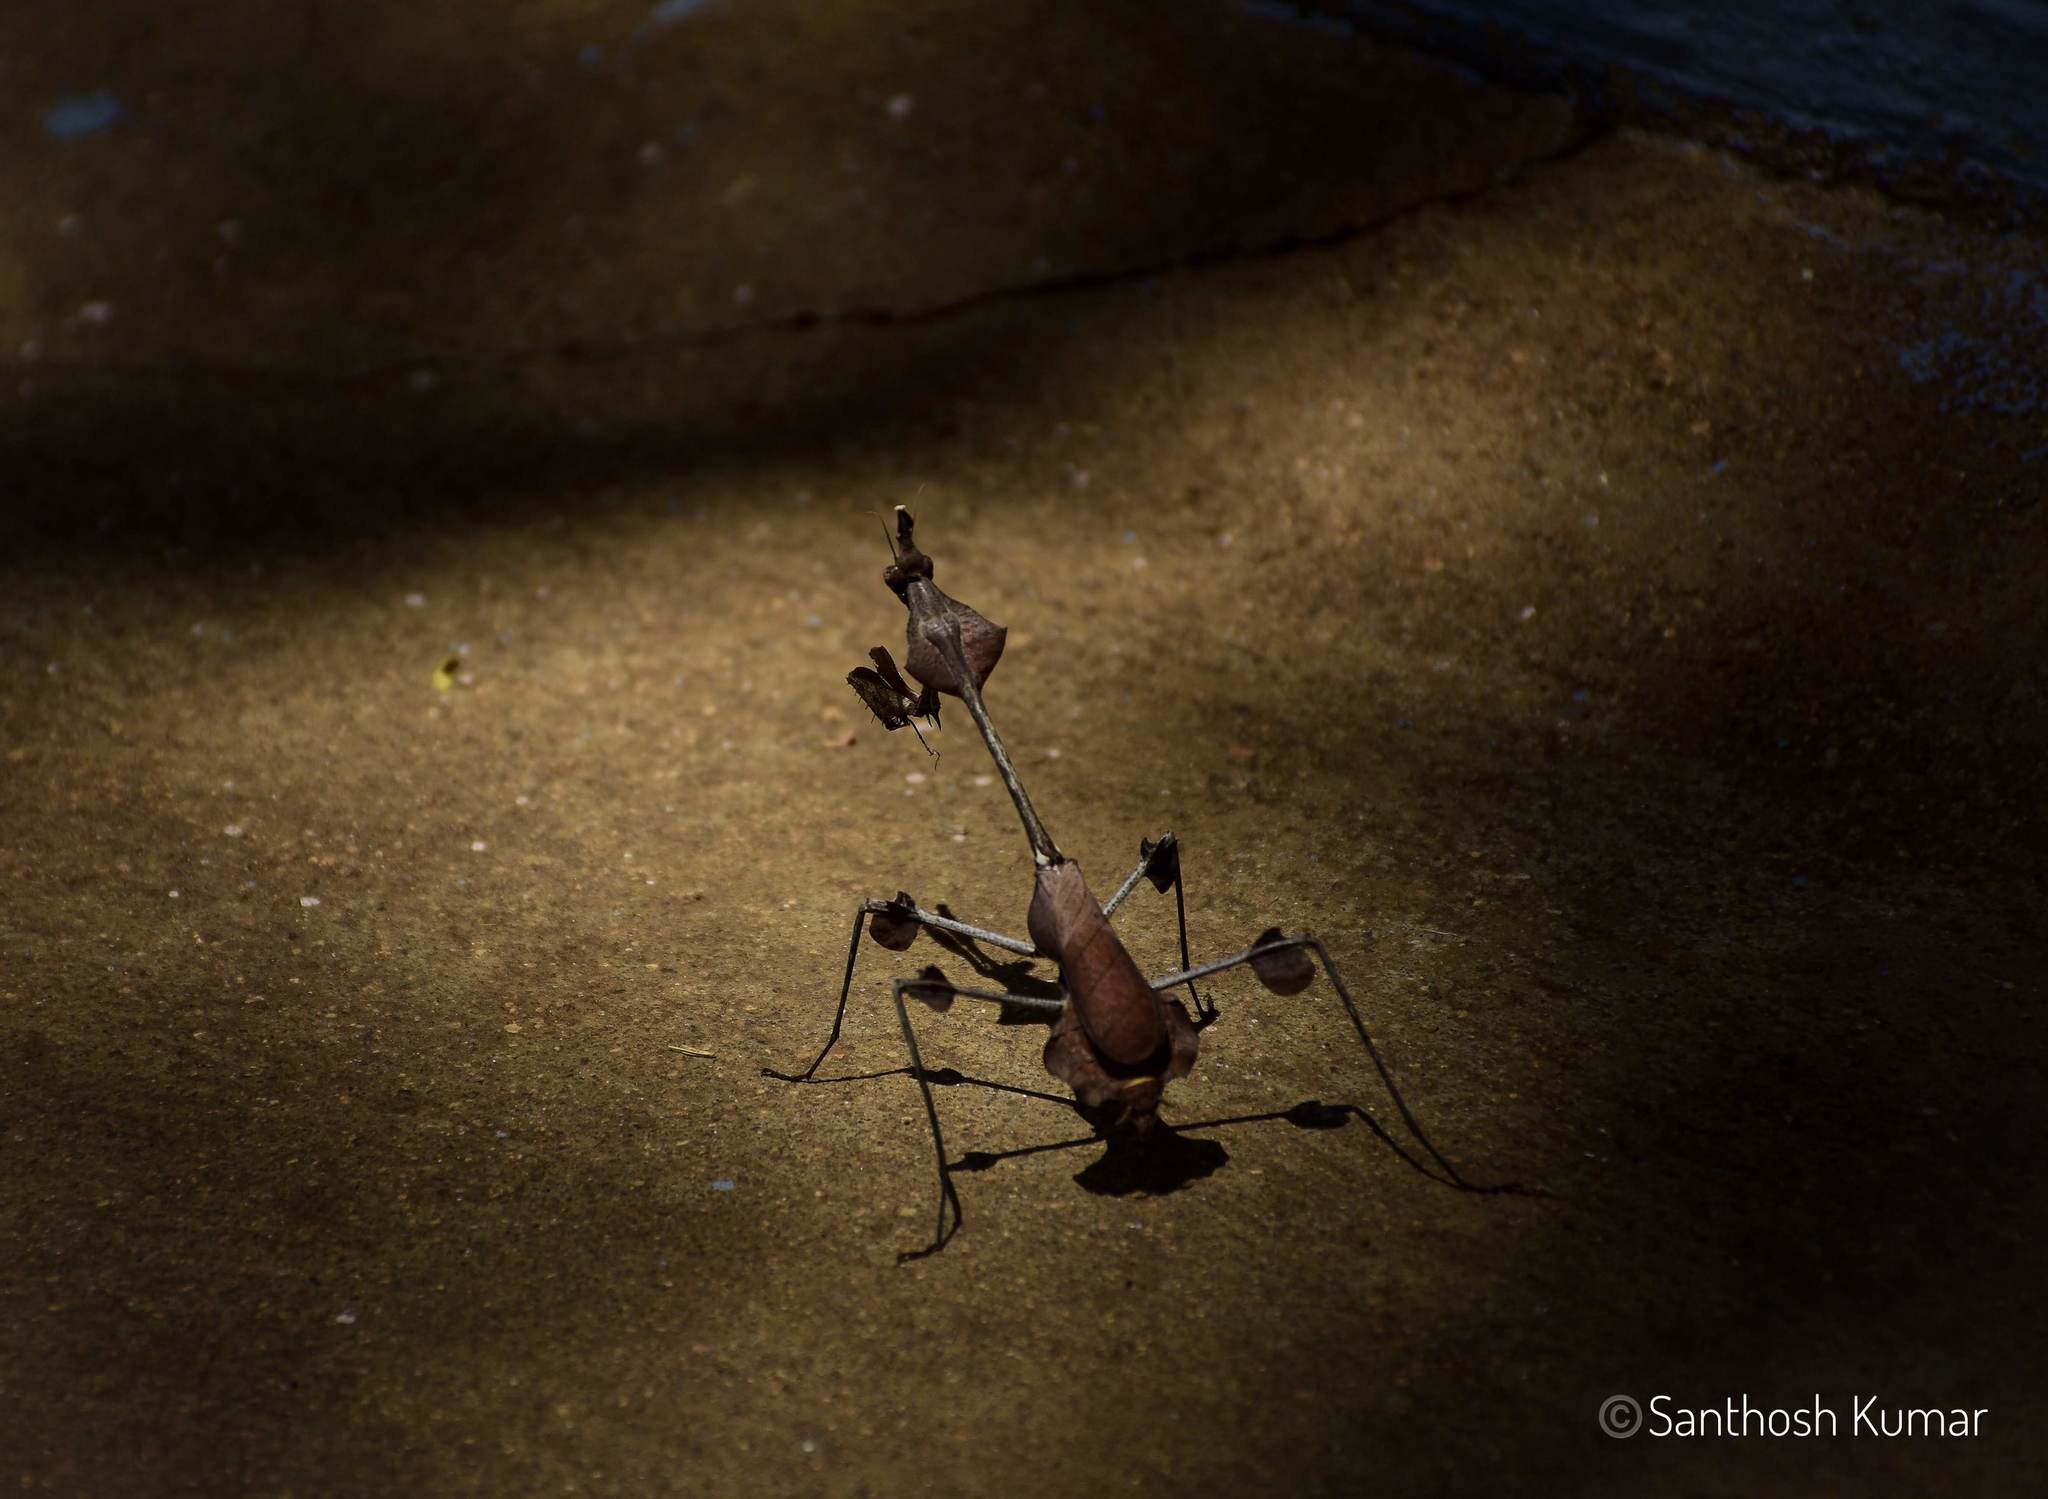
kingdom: Animalia
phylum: Arthropoda
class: Insecta
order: Mantodea
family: Empusidae
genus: Gongylus
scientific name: Gongylus gongylodes
